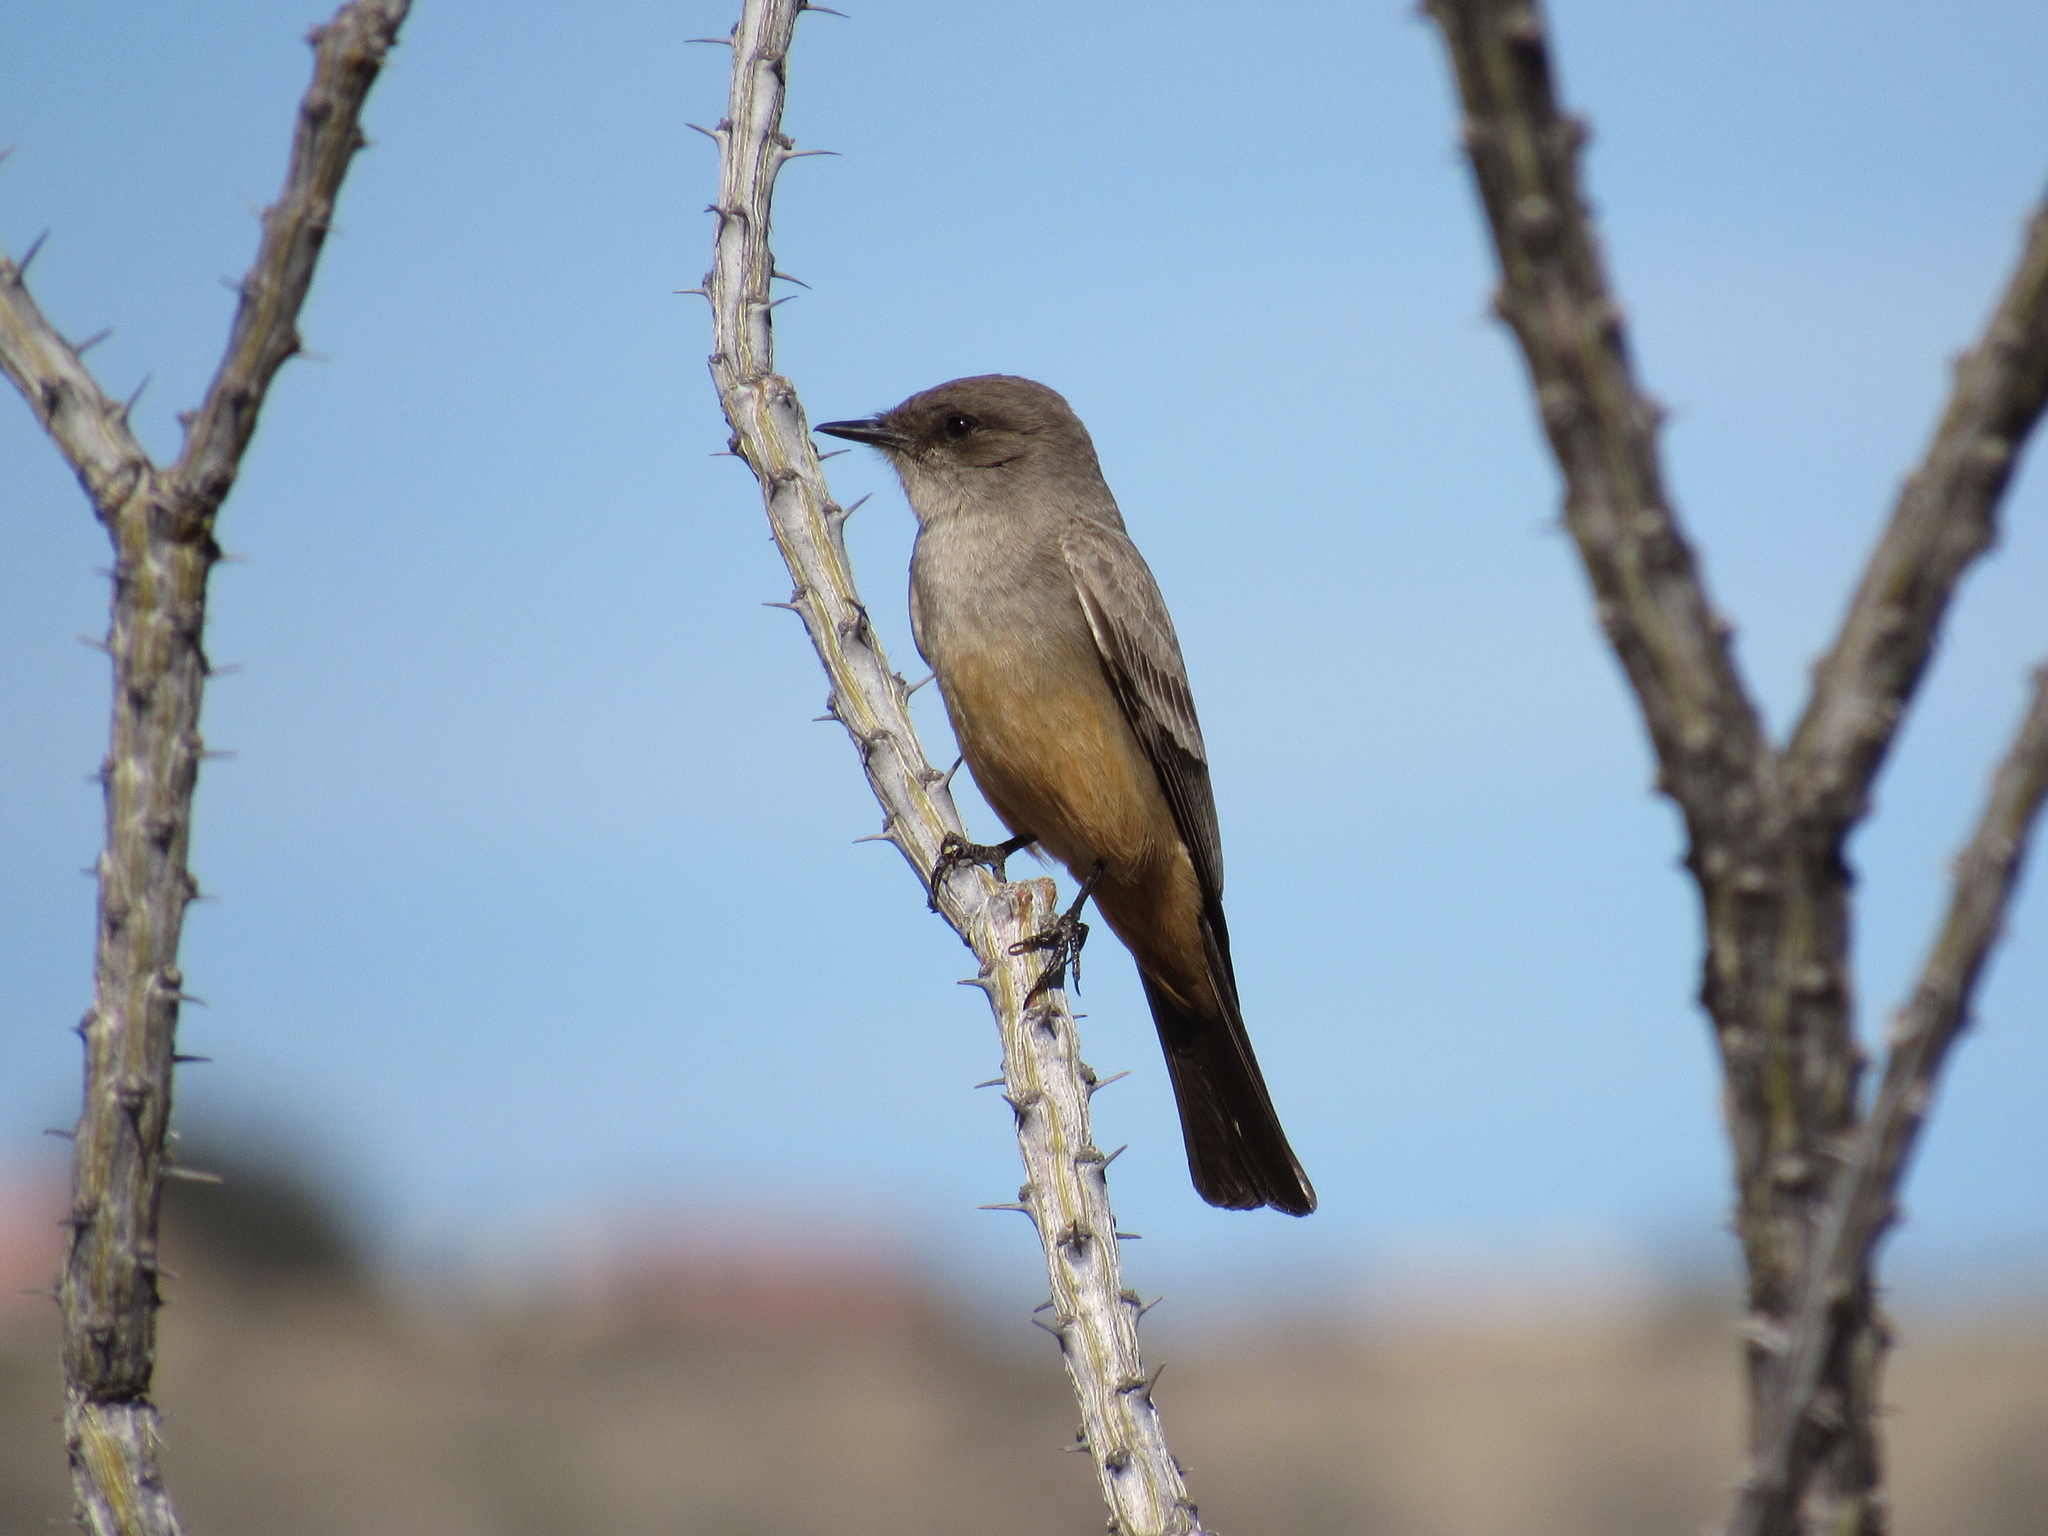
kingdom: Animalia
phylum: Chordata
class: Aves
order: Passeriformes
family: Tyrannidae
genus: Sayornis
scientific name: Sayornis saya
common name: Say's phoebe
